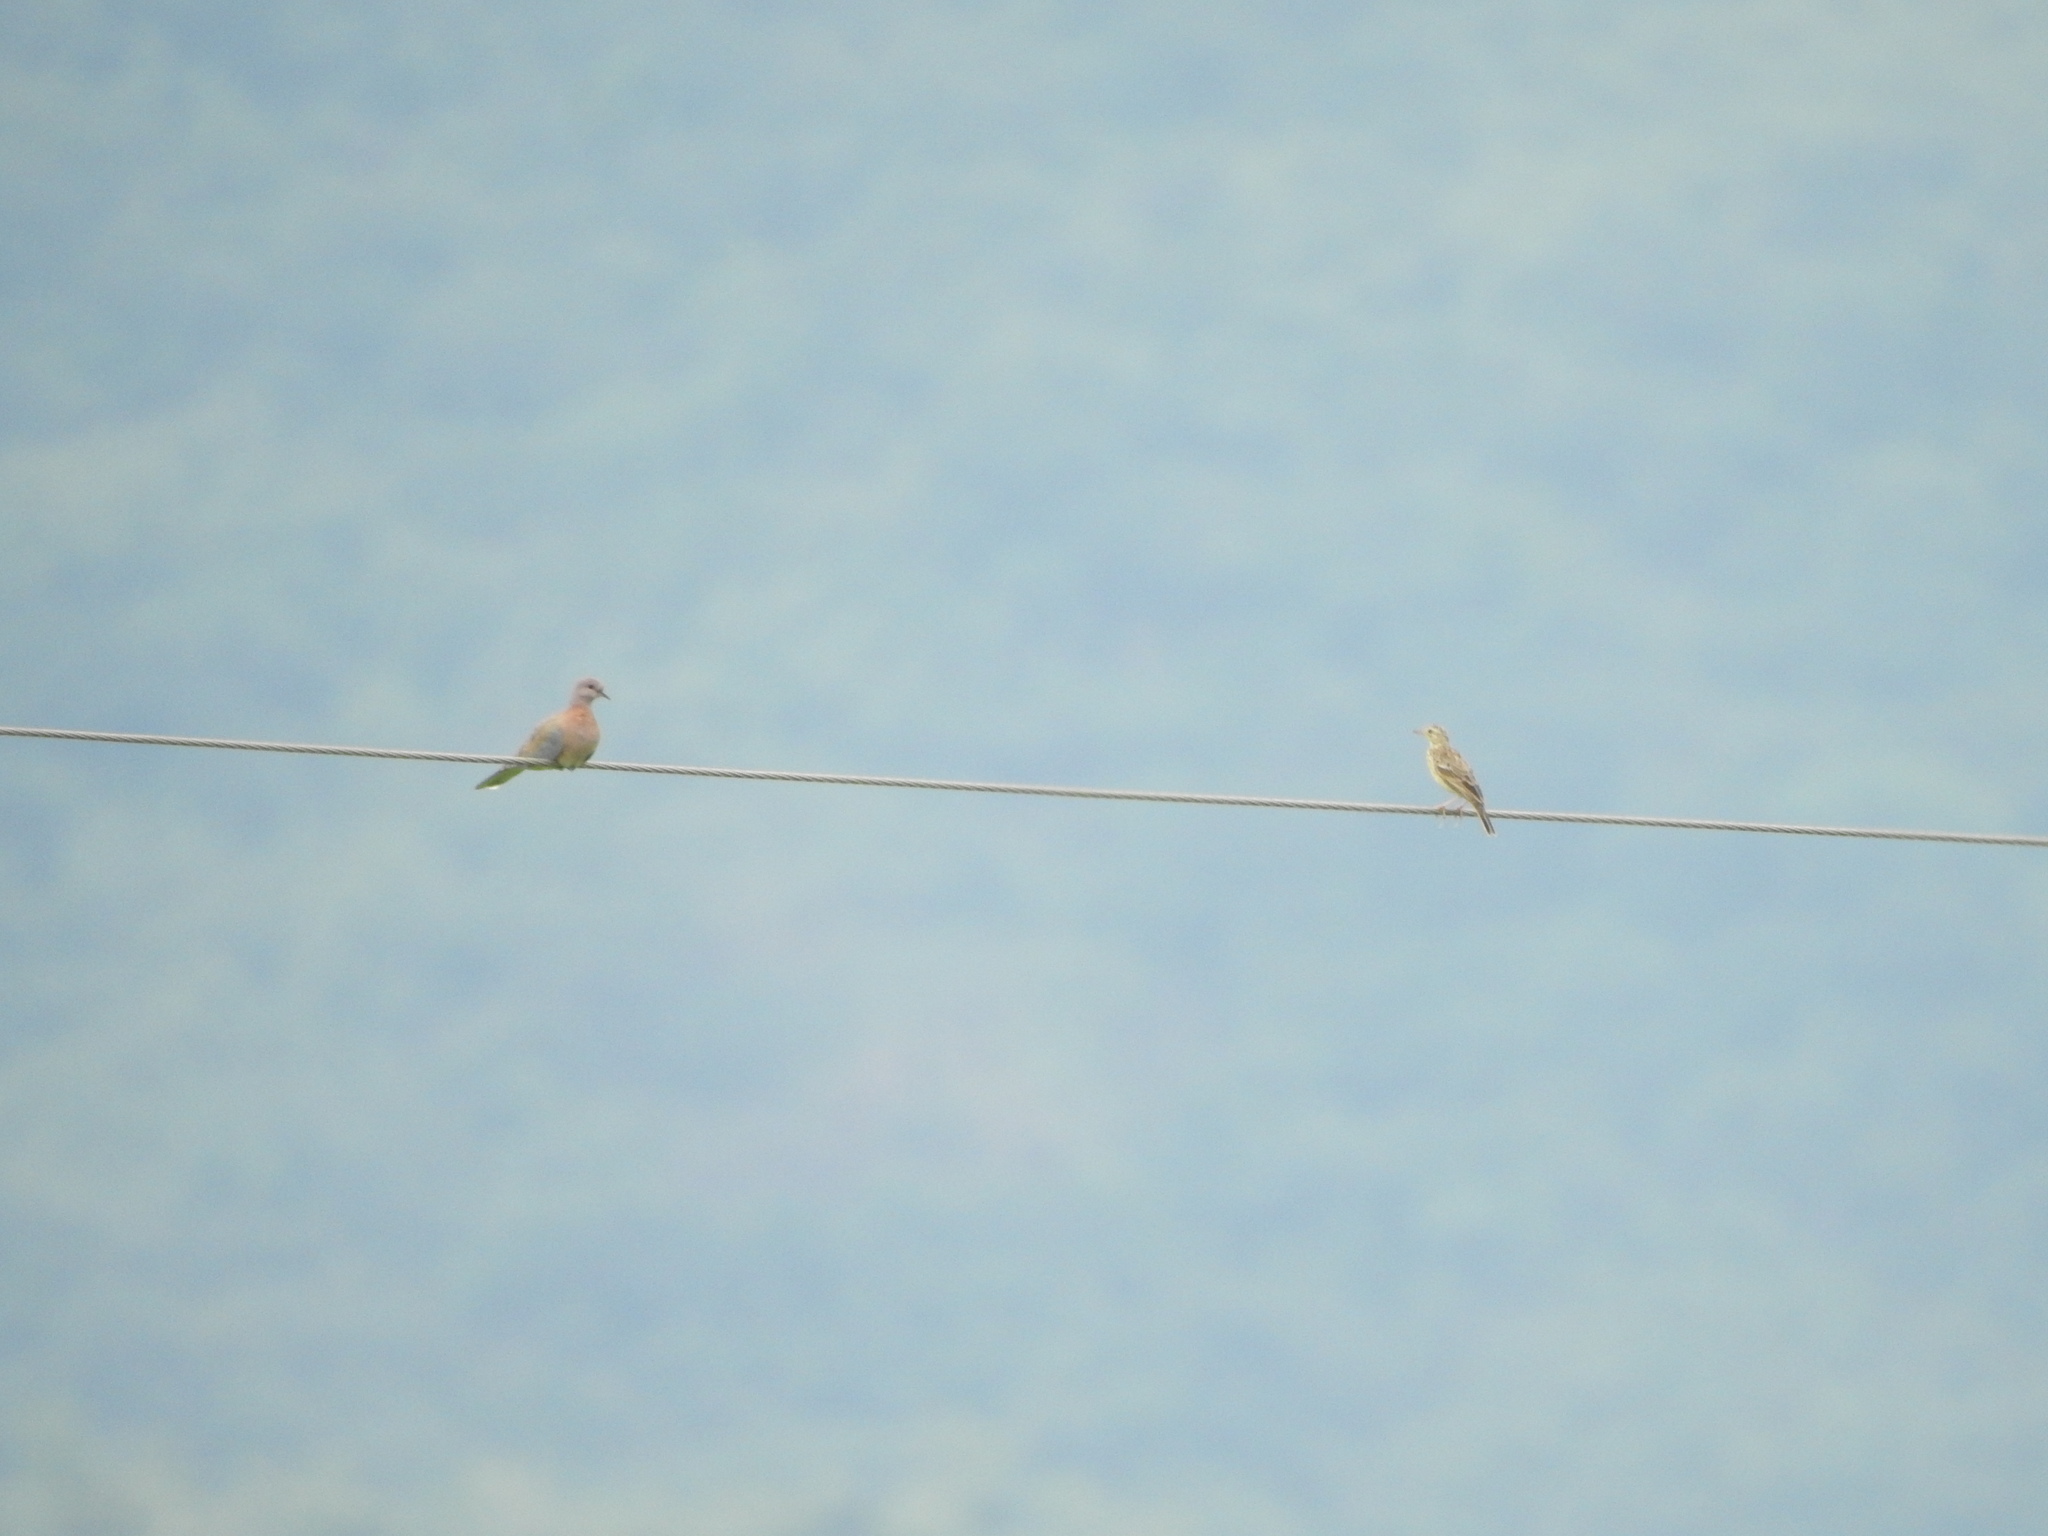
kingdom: Animalia
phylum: Chordata
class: Aves
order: Columbiformes
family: Columbidae
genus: Spilopelia
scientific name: Spilopelia senegalensis
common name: Laughing dove
